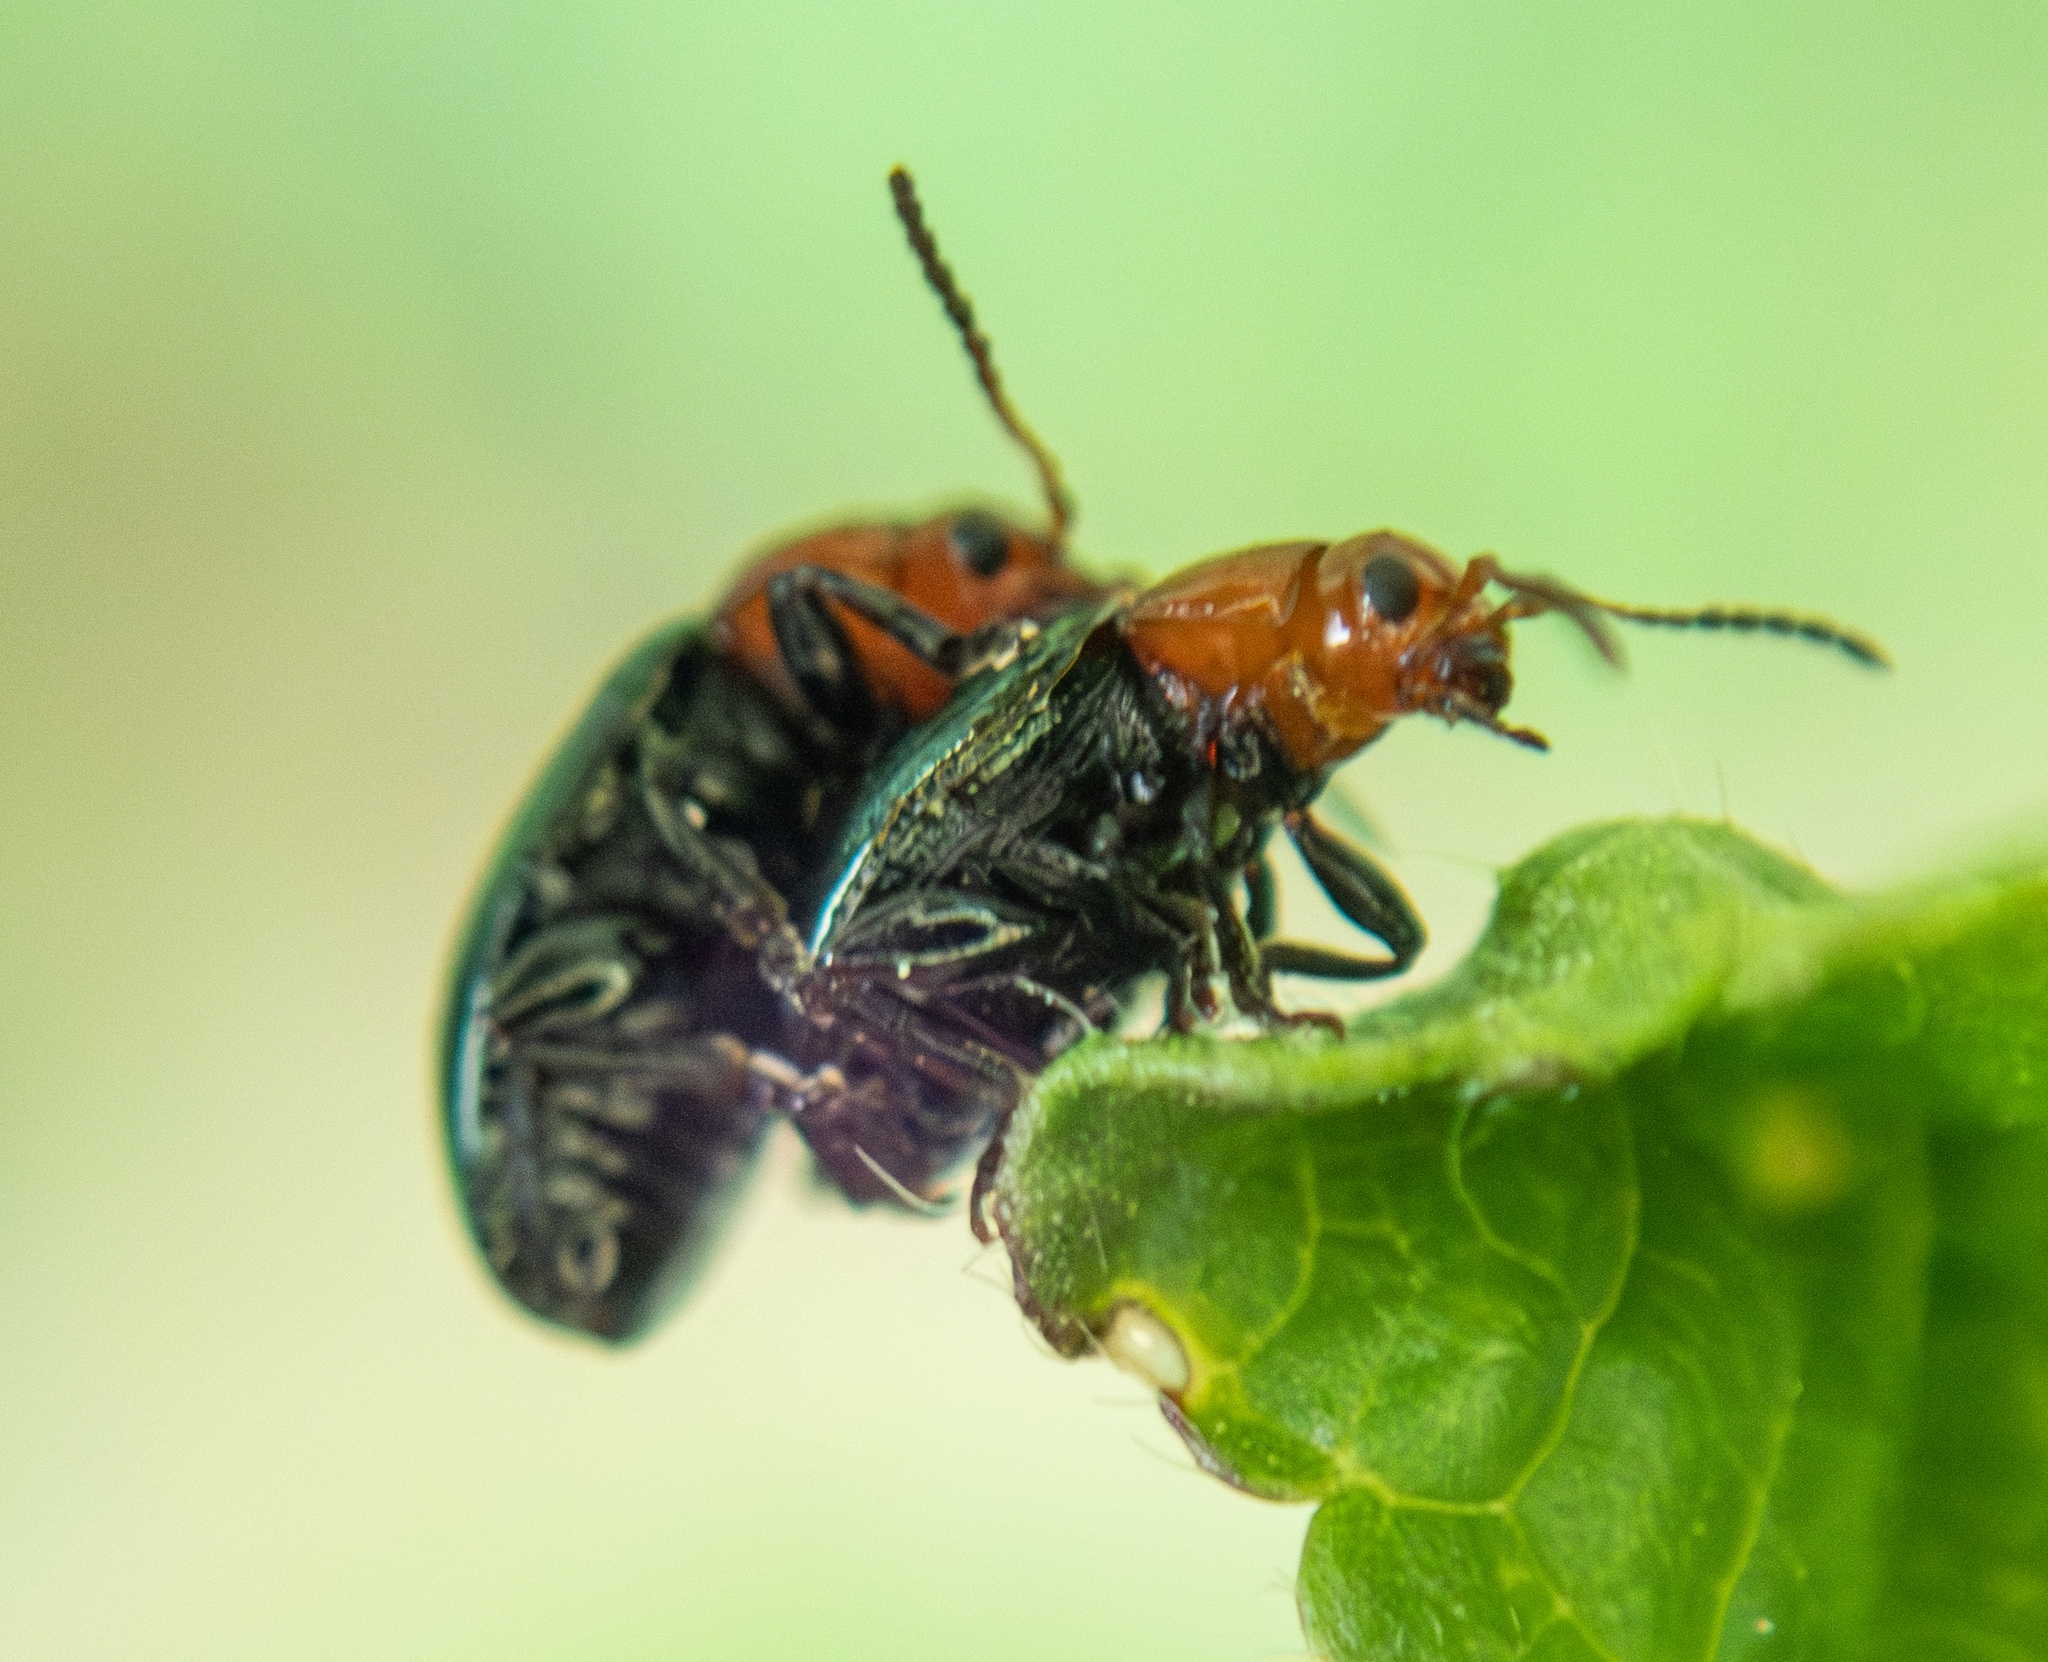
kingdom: Animalia
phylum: Arthropoda
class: Insecta
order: Coleoptera
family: Chrysomelidae
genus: Podagrica
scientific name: Podagrica fuscipes
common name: Mallow flea beetle
